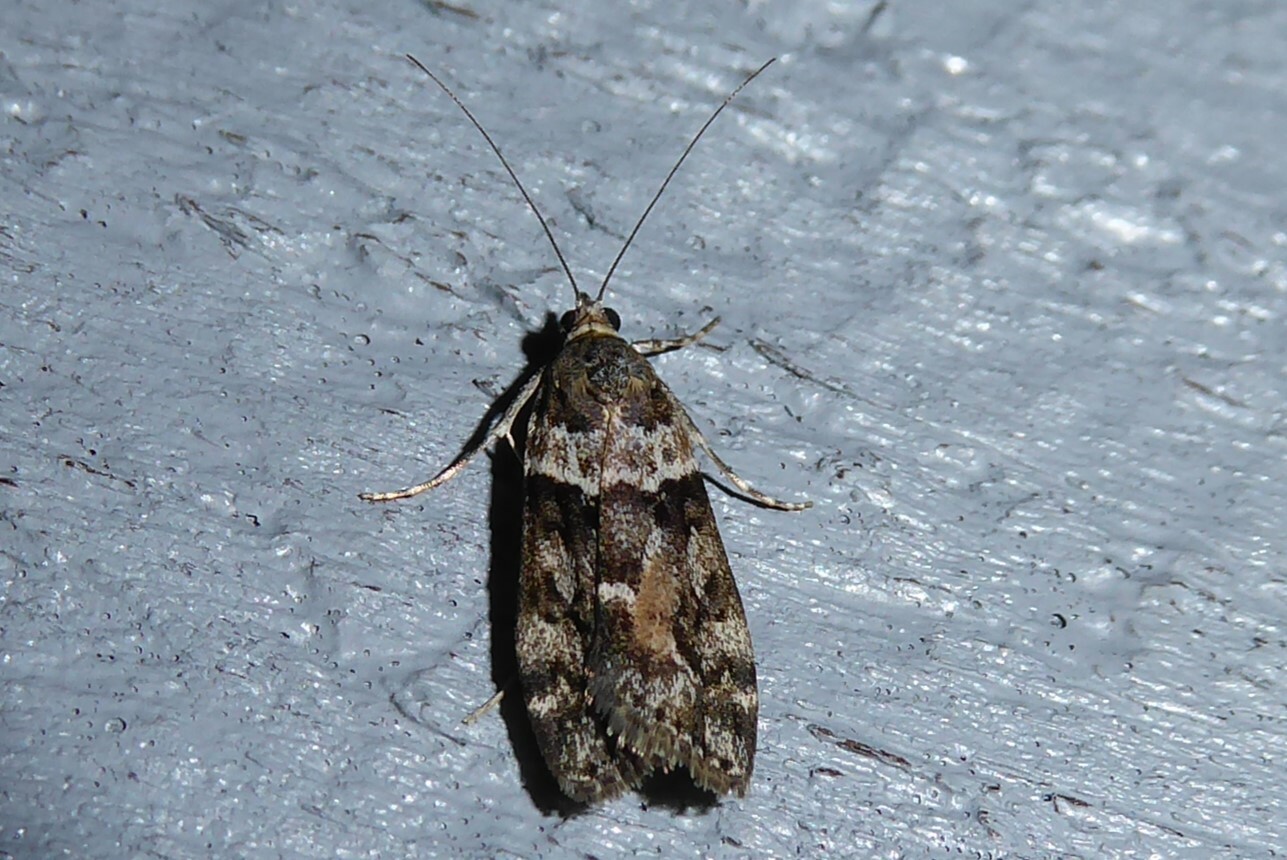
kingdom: Animalia
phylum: Arthropoda
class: Insecta
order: Lepidoptera
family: Crambidae
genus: Eudonia
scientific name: Eudonia submarginalis
